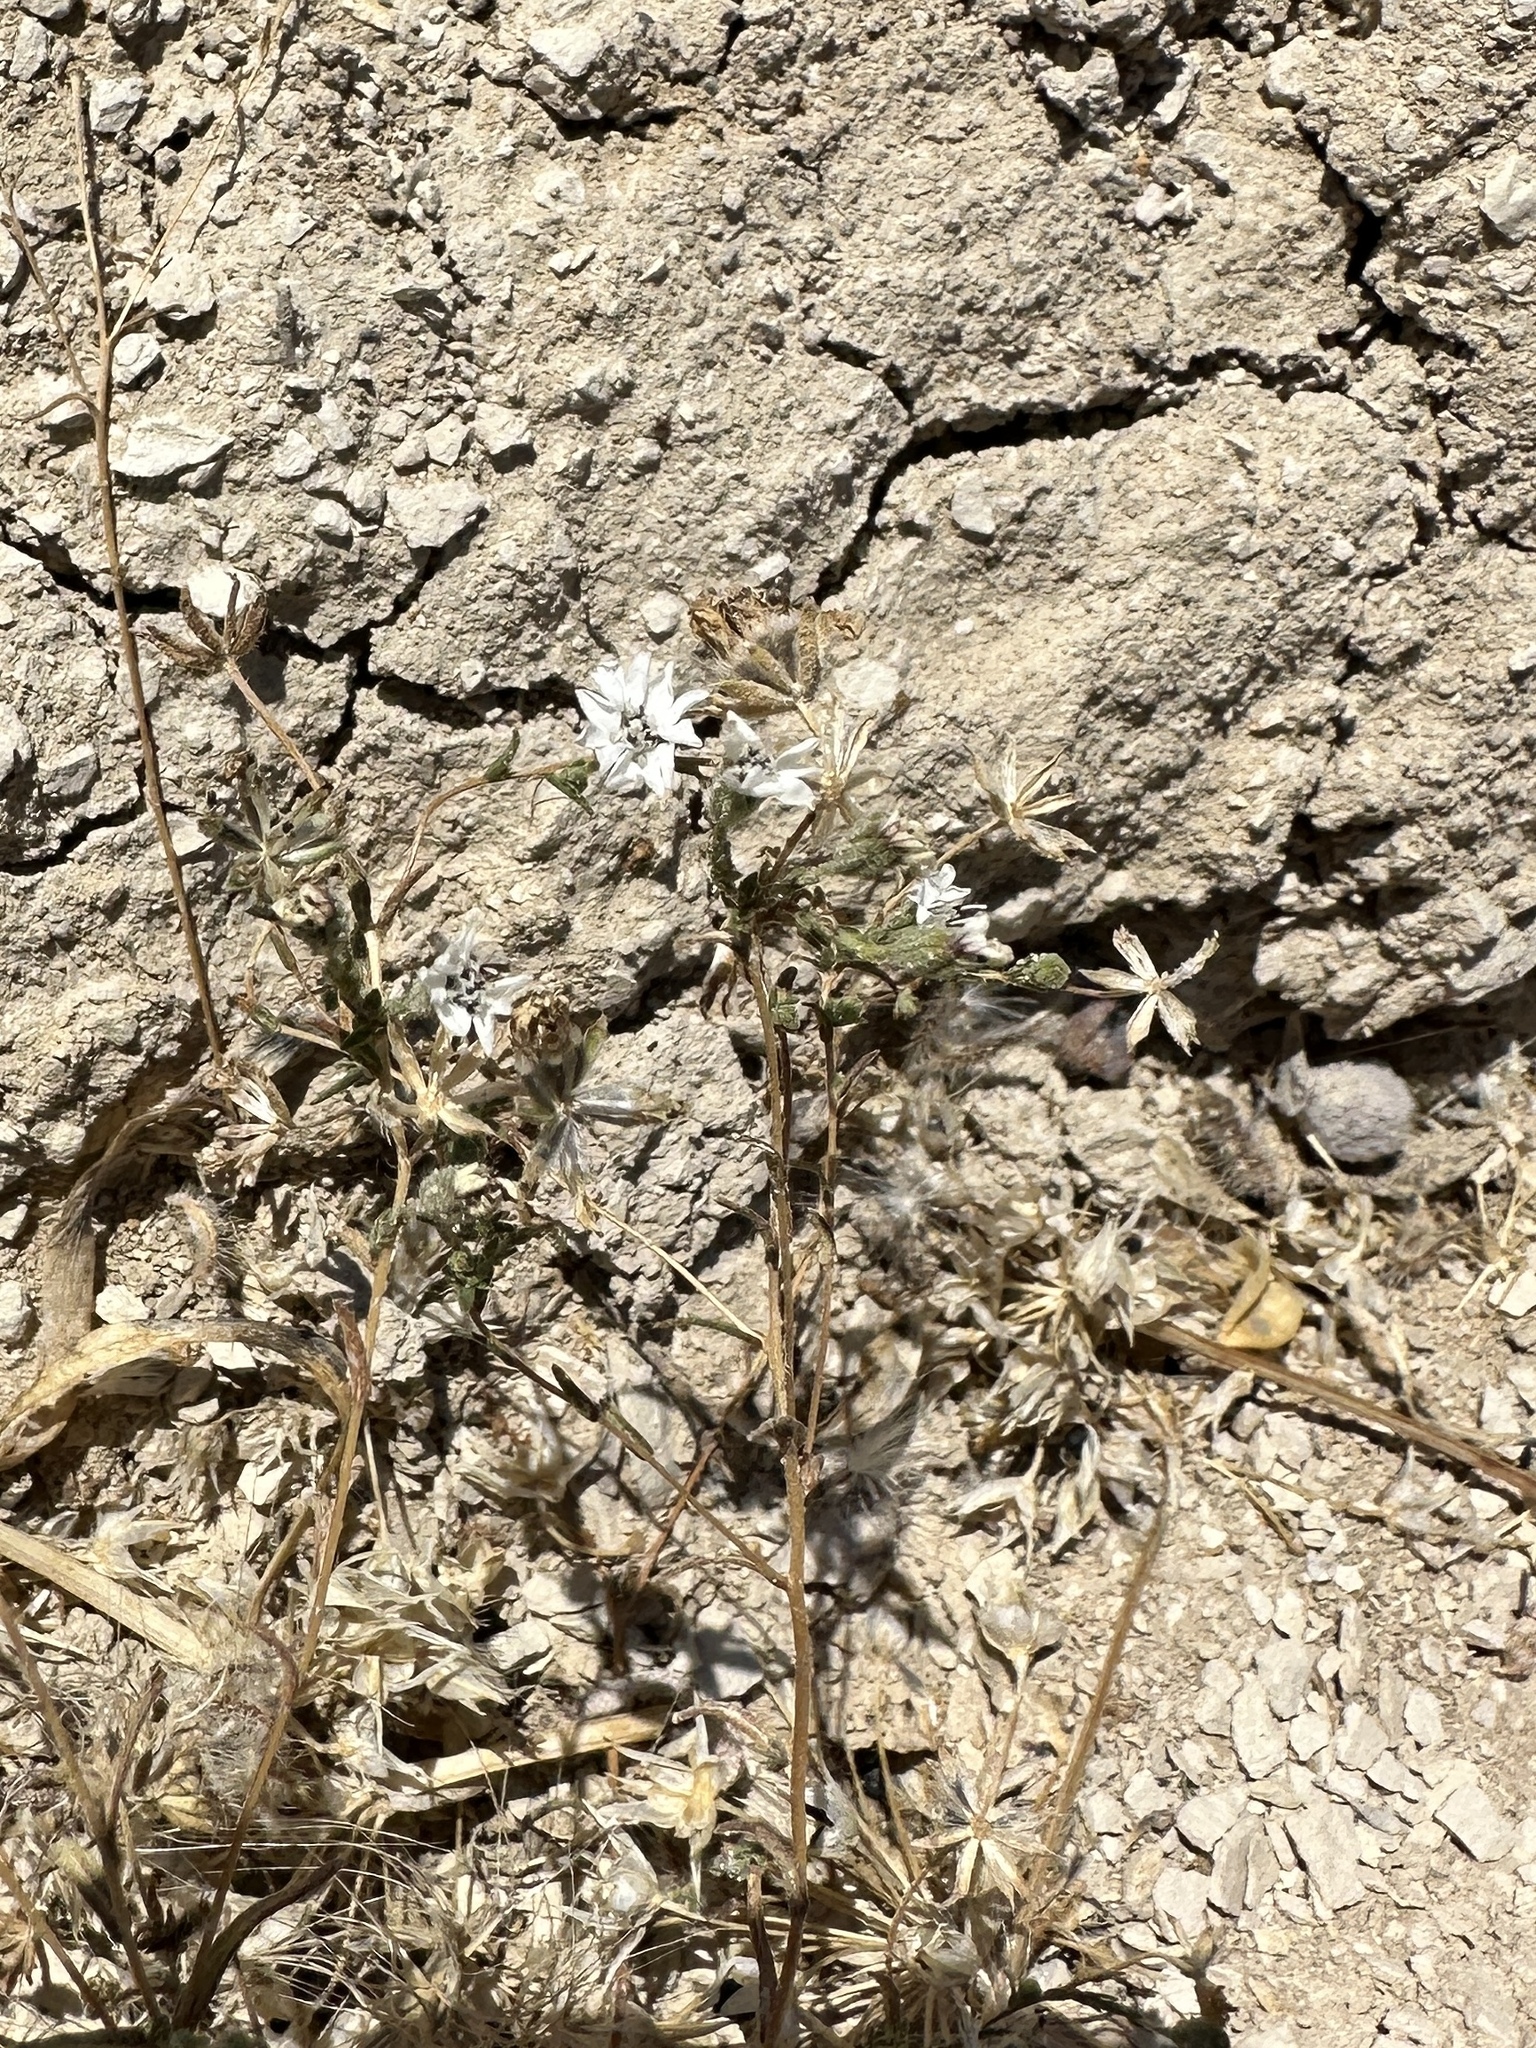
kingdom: Plantae
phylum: Tracheophyta
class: Magnoliopsida
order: Asterales
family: Asteraceae
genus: Blepharipappus
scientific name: Blepharipappus scaber
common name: Rough blepharipappus
